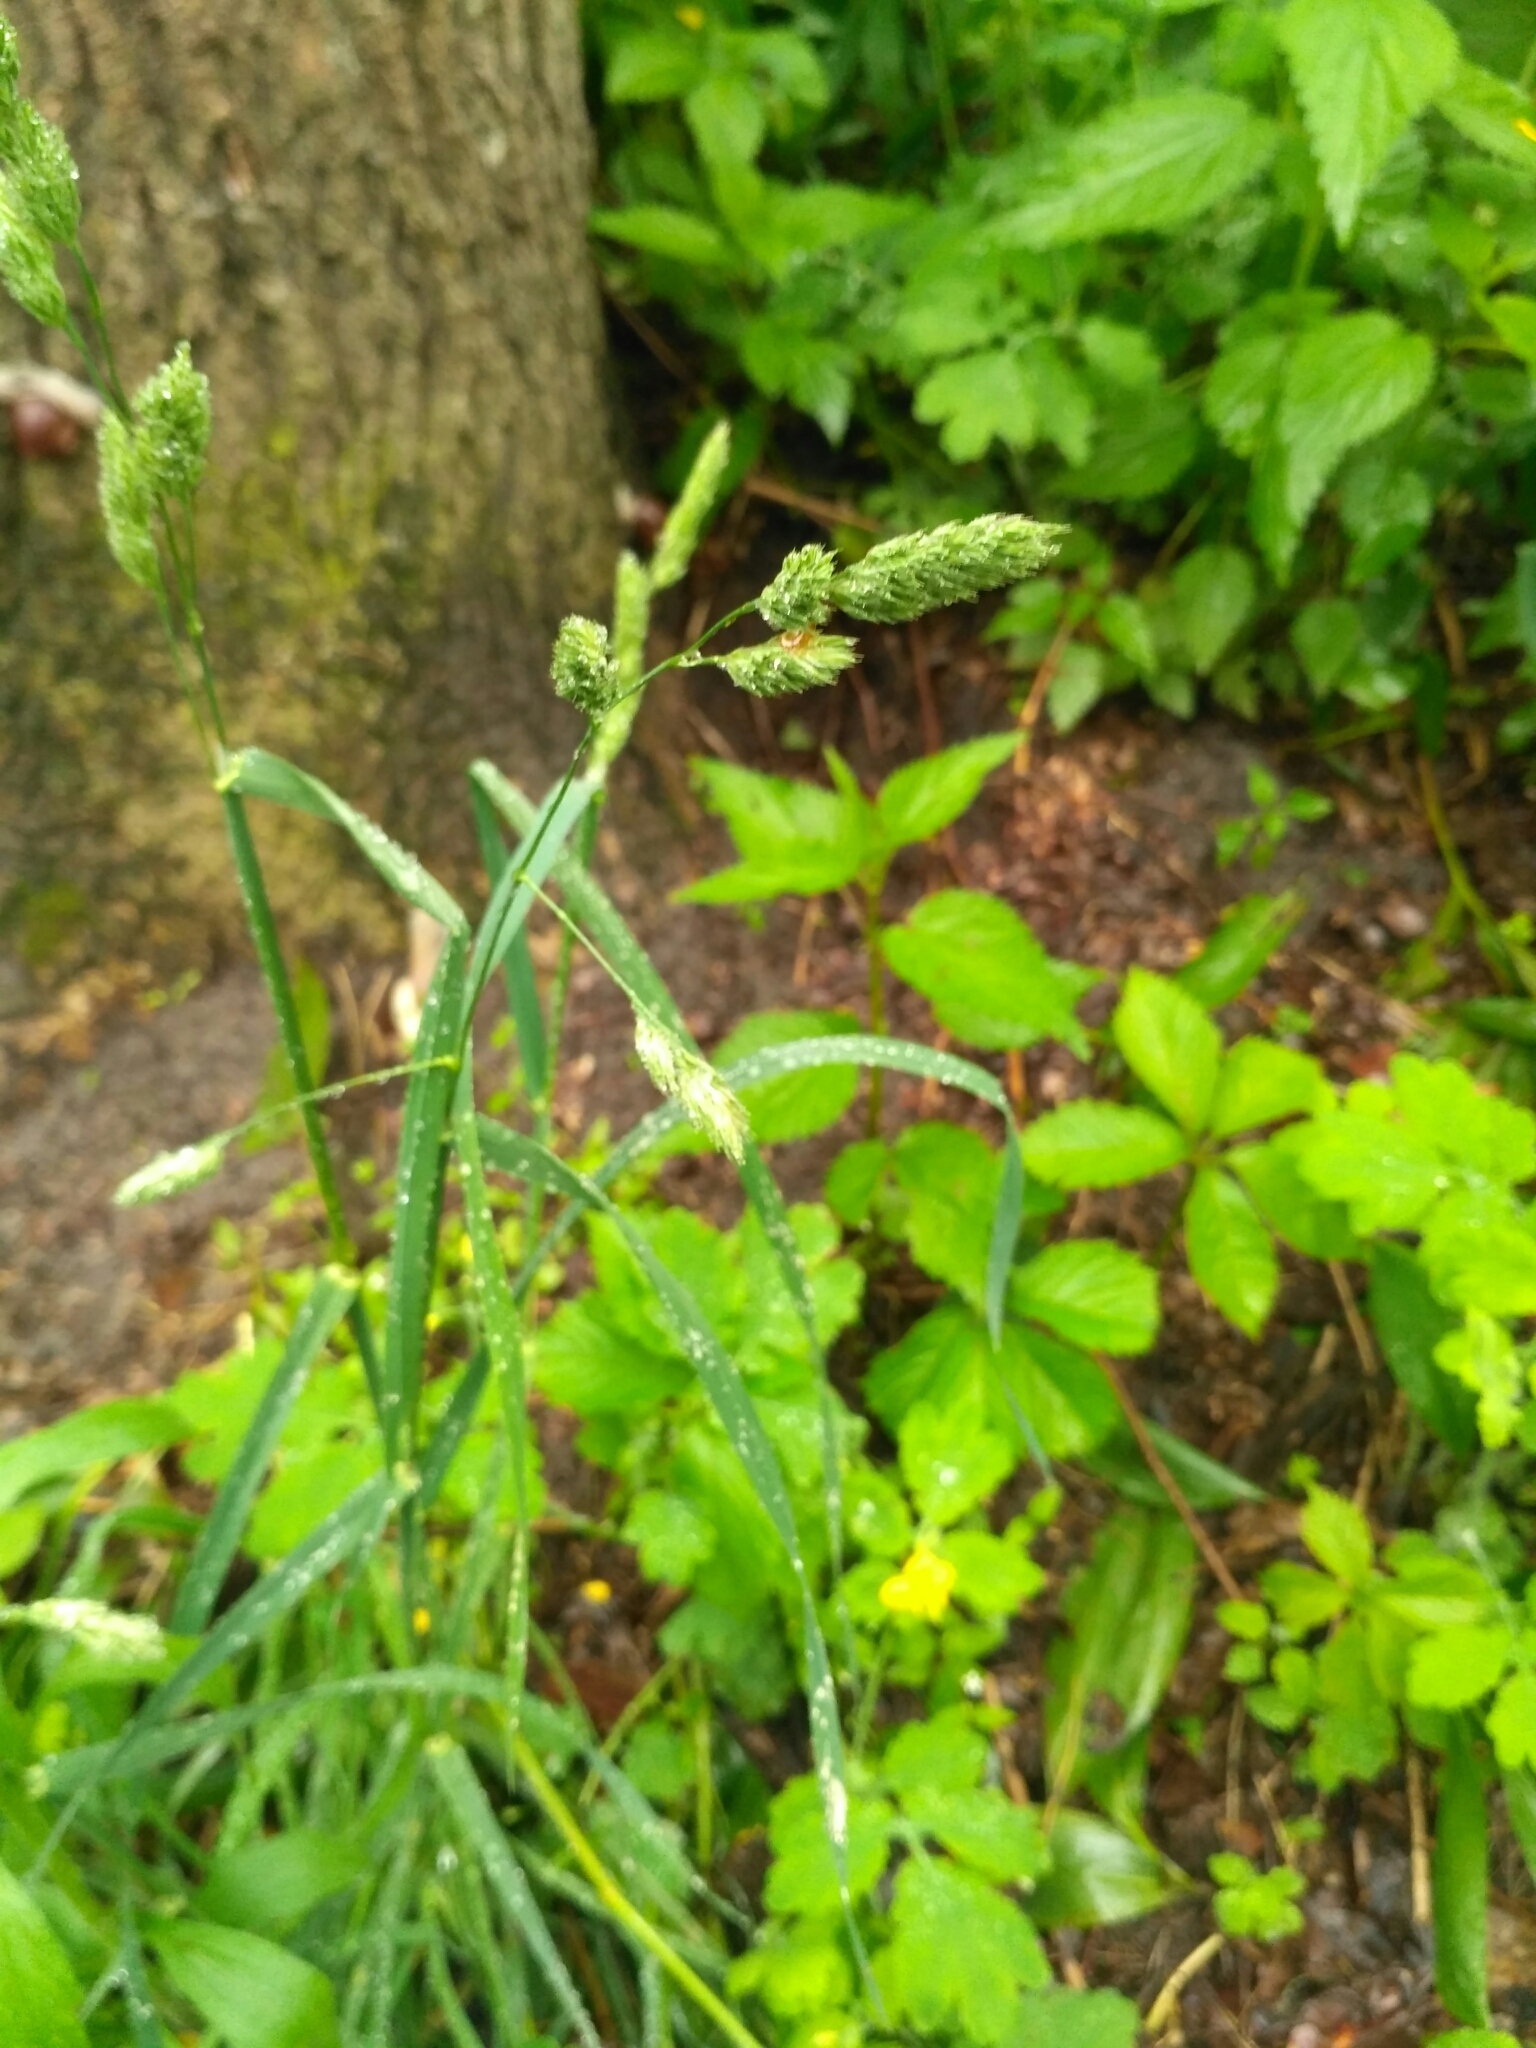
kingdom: Plantae
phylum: Tracheophyta
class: Liliopsida
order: Poales
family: Poaceae
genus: Dactylis
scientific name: Dactylis glomerata
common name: Orchardgrass
